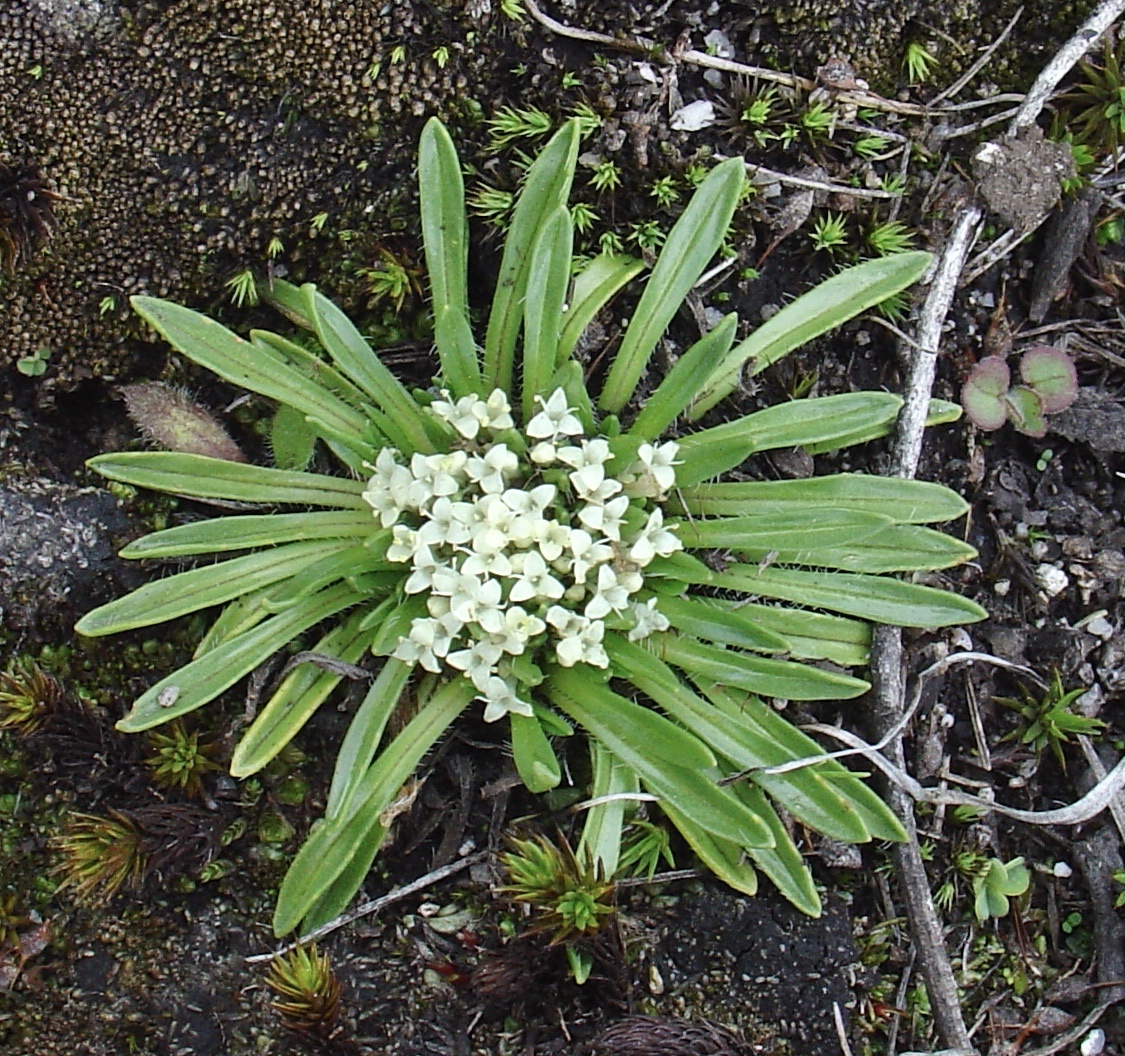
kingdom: Plantae
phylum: Tracheophyta
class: Magnoliopsida
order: Dipsacales
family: Caprifoliaceae
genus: Valeriana
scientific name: Valeriana niphobia
